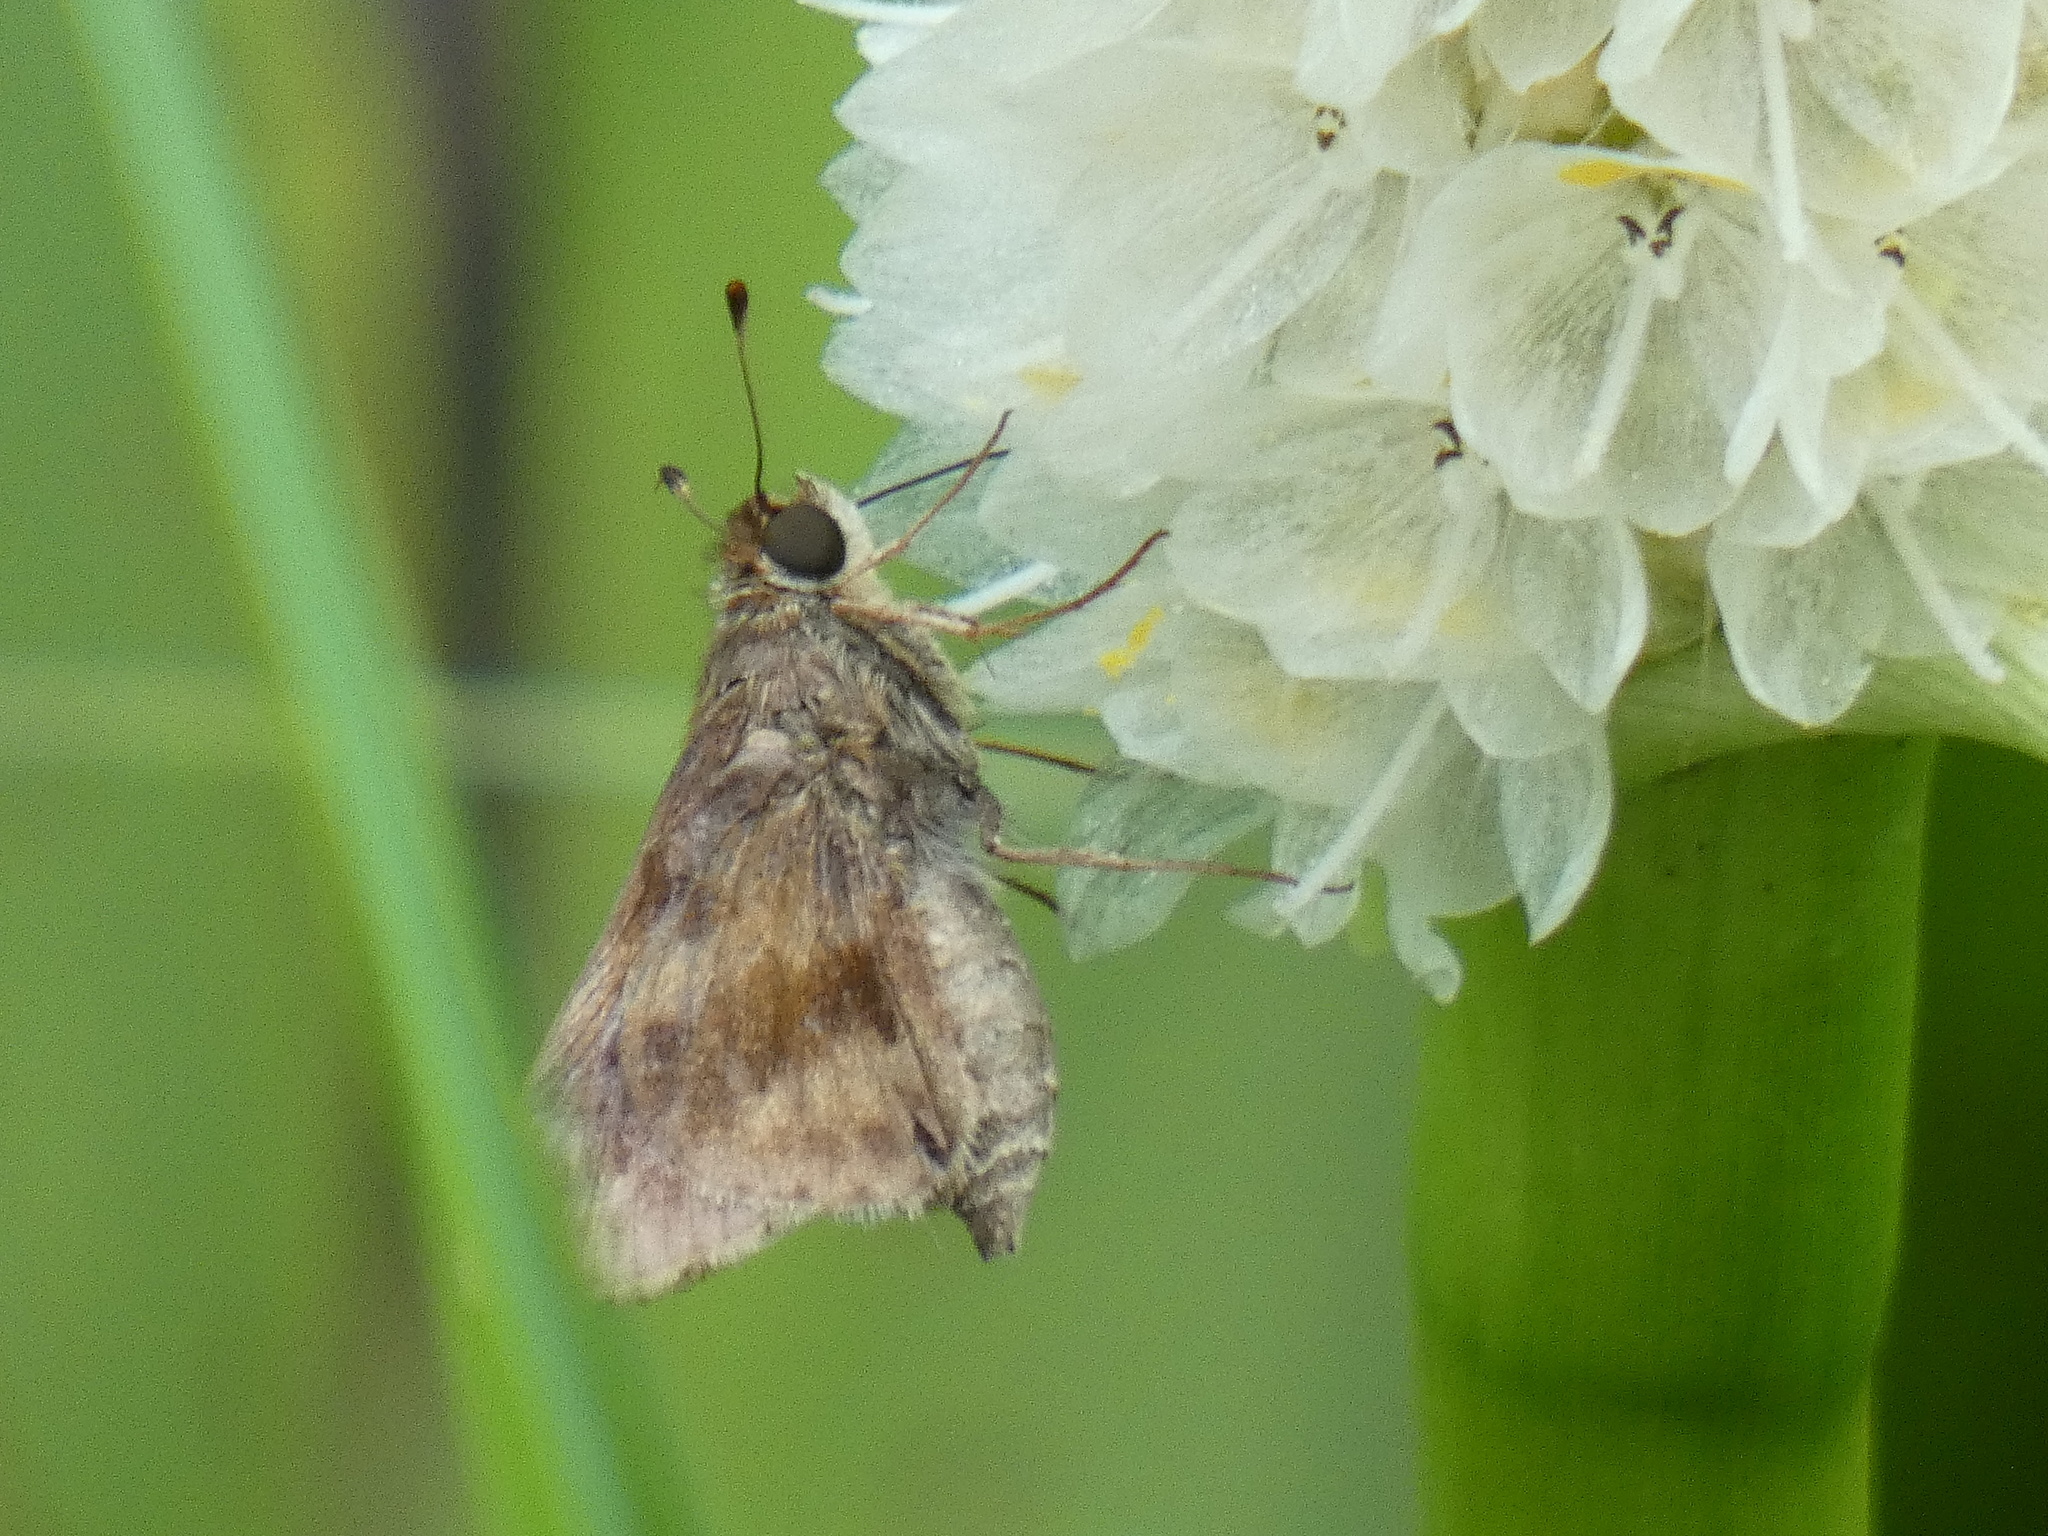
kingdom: Animalia
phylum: Arthropoda
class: Insecta
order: Lepidoptera
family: Hesperiidae
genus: Pompeius
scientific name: Pompeius pompeius
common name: Pompeius skipper
